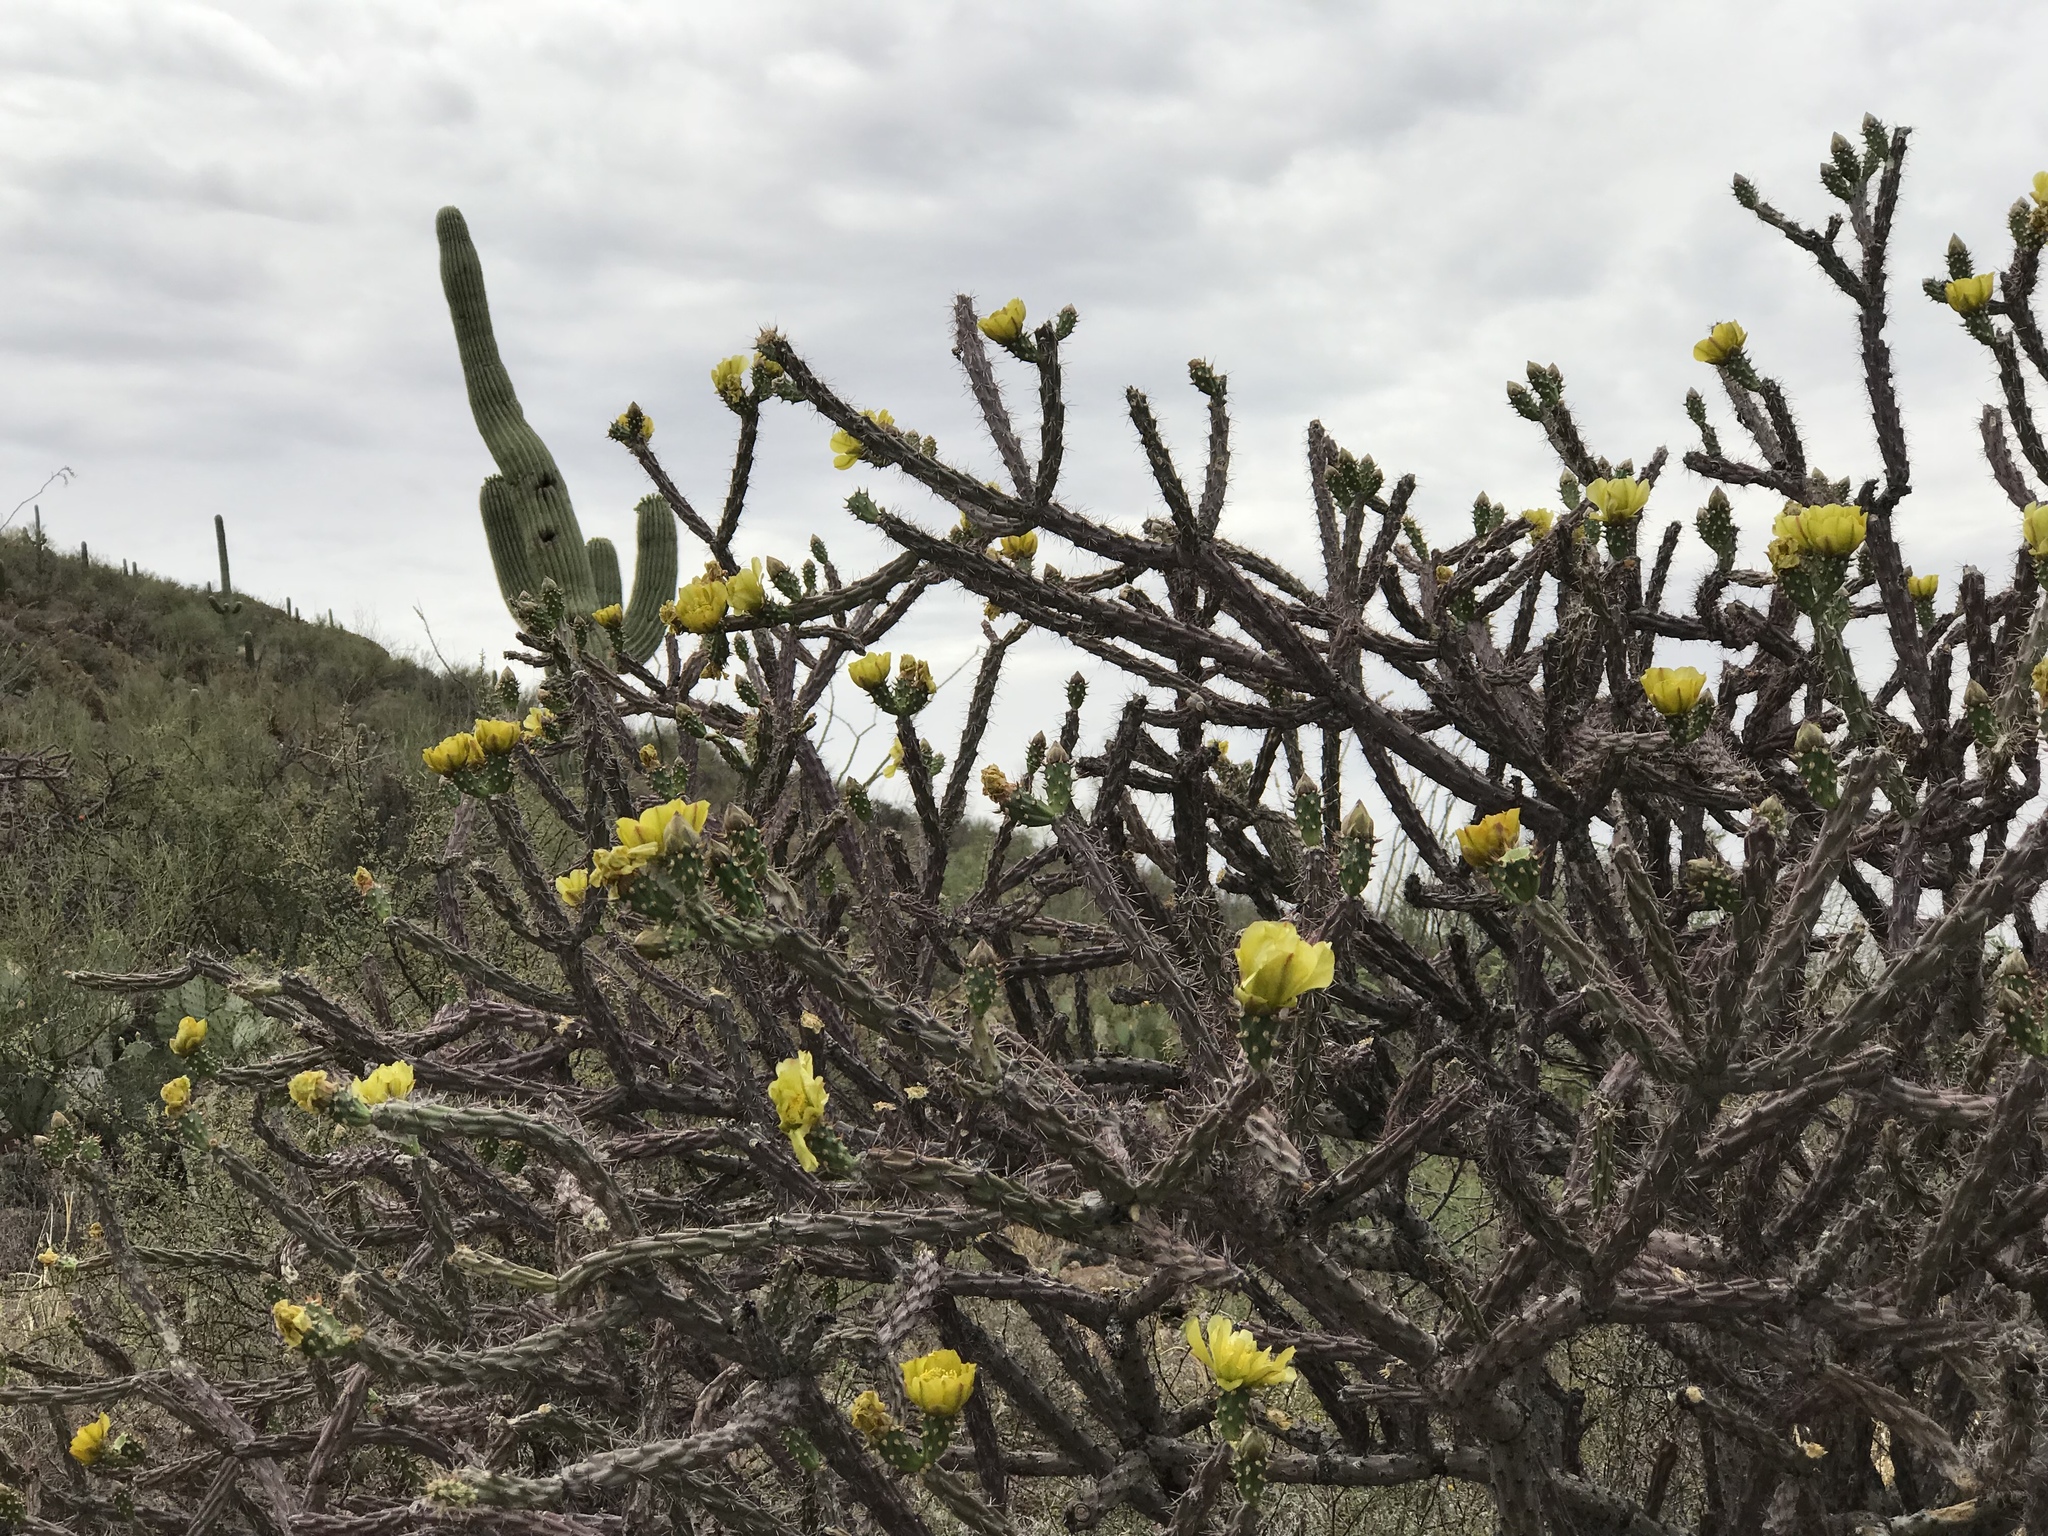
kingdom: Plantae
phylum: Tracheophyta
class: Magnoliopsida
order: Caryophyllales
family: Cactaceae
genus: Cylindropuntia
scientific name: Cylindropuntia thurberi
